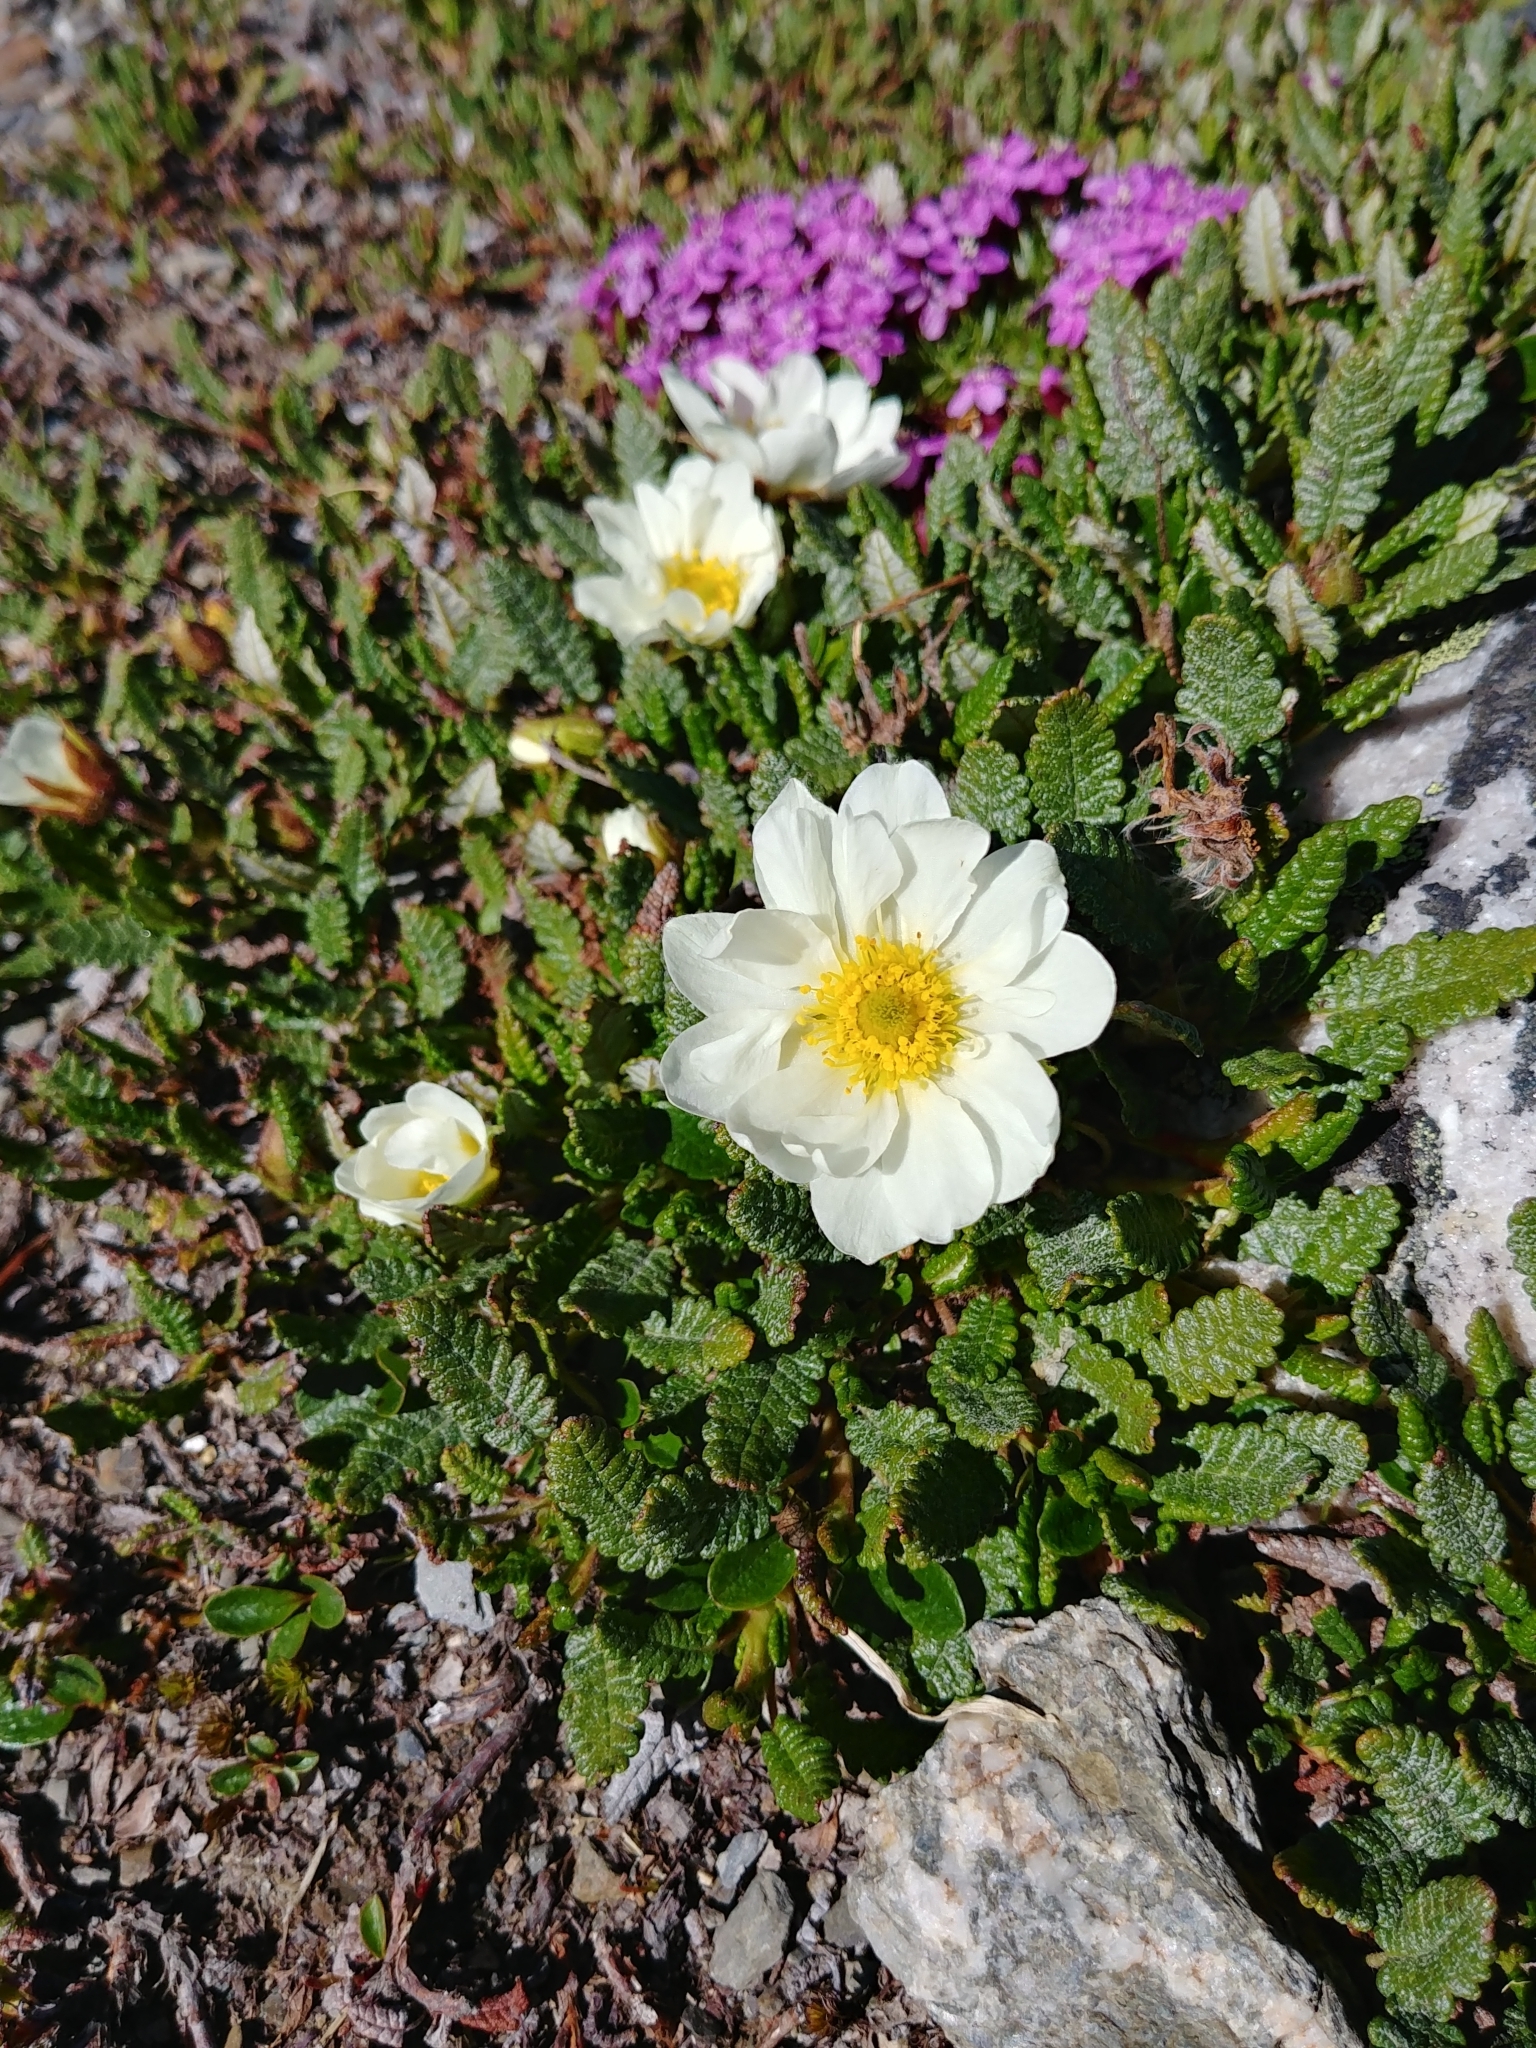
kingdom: Plantae
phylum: Tracheophyta
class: Magnoliopsida
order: Rosales
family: Rosaceae
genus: Dryas
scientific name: Dryas octopetala
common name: Eight-petal mountain-avens
